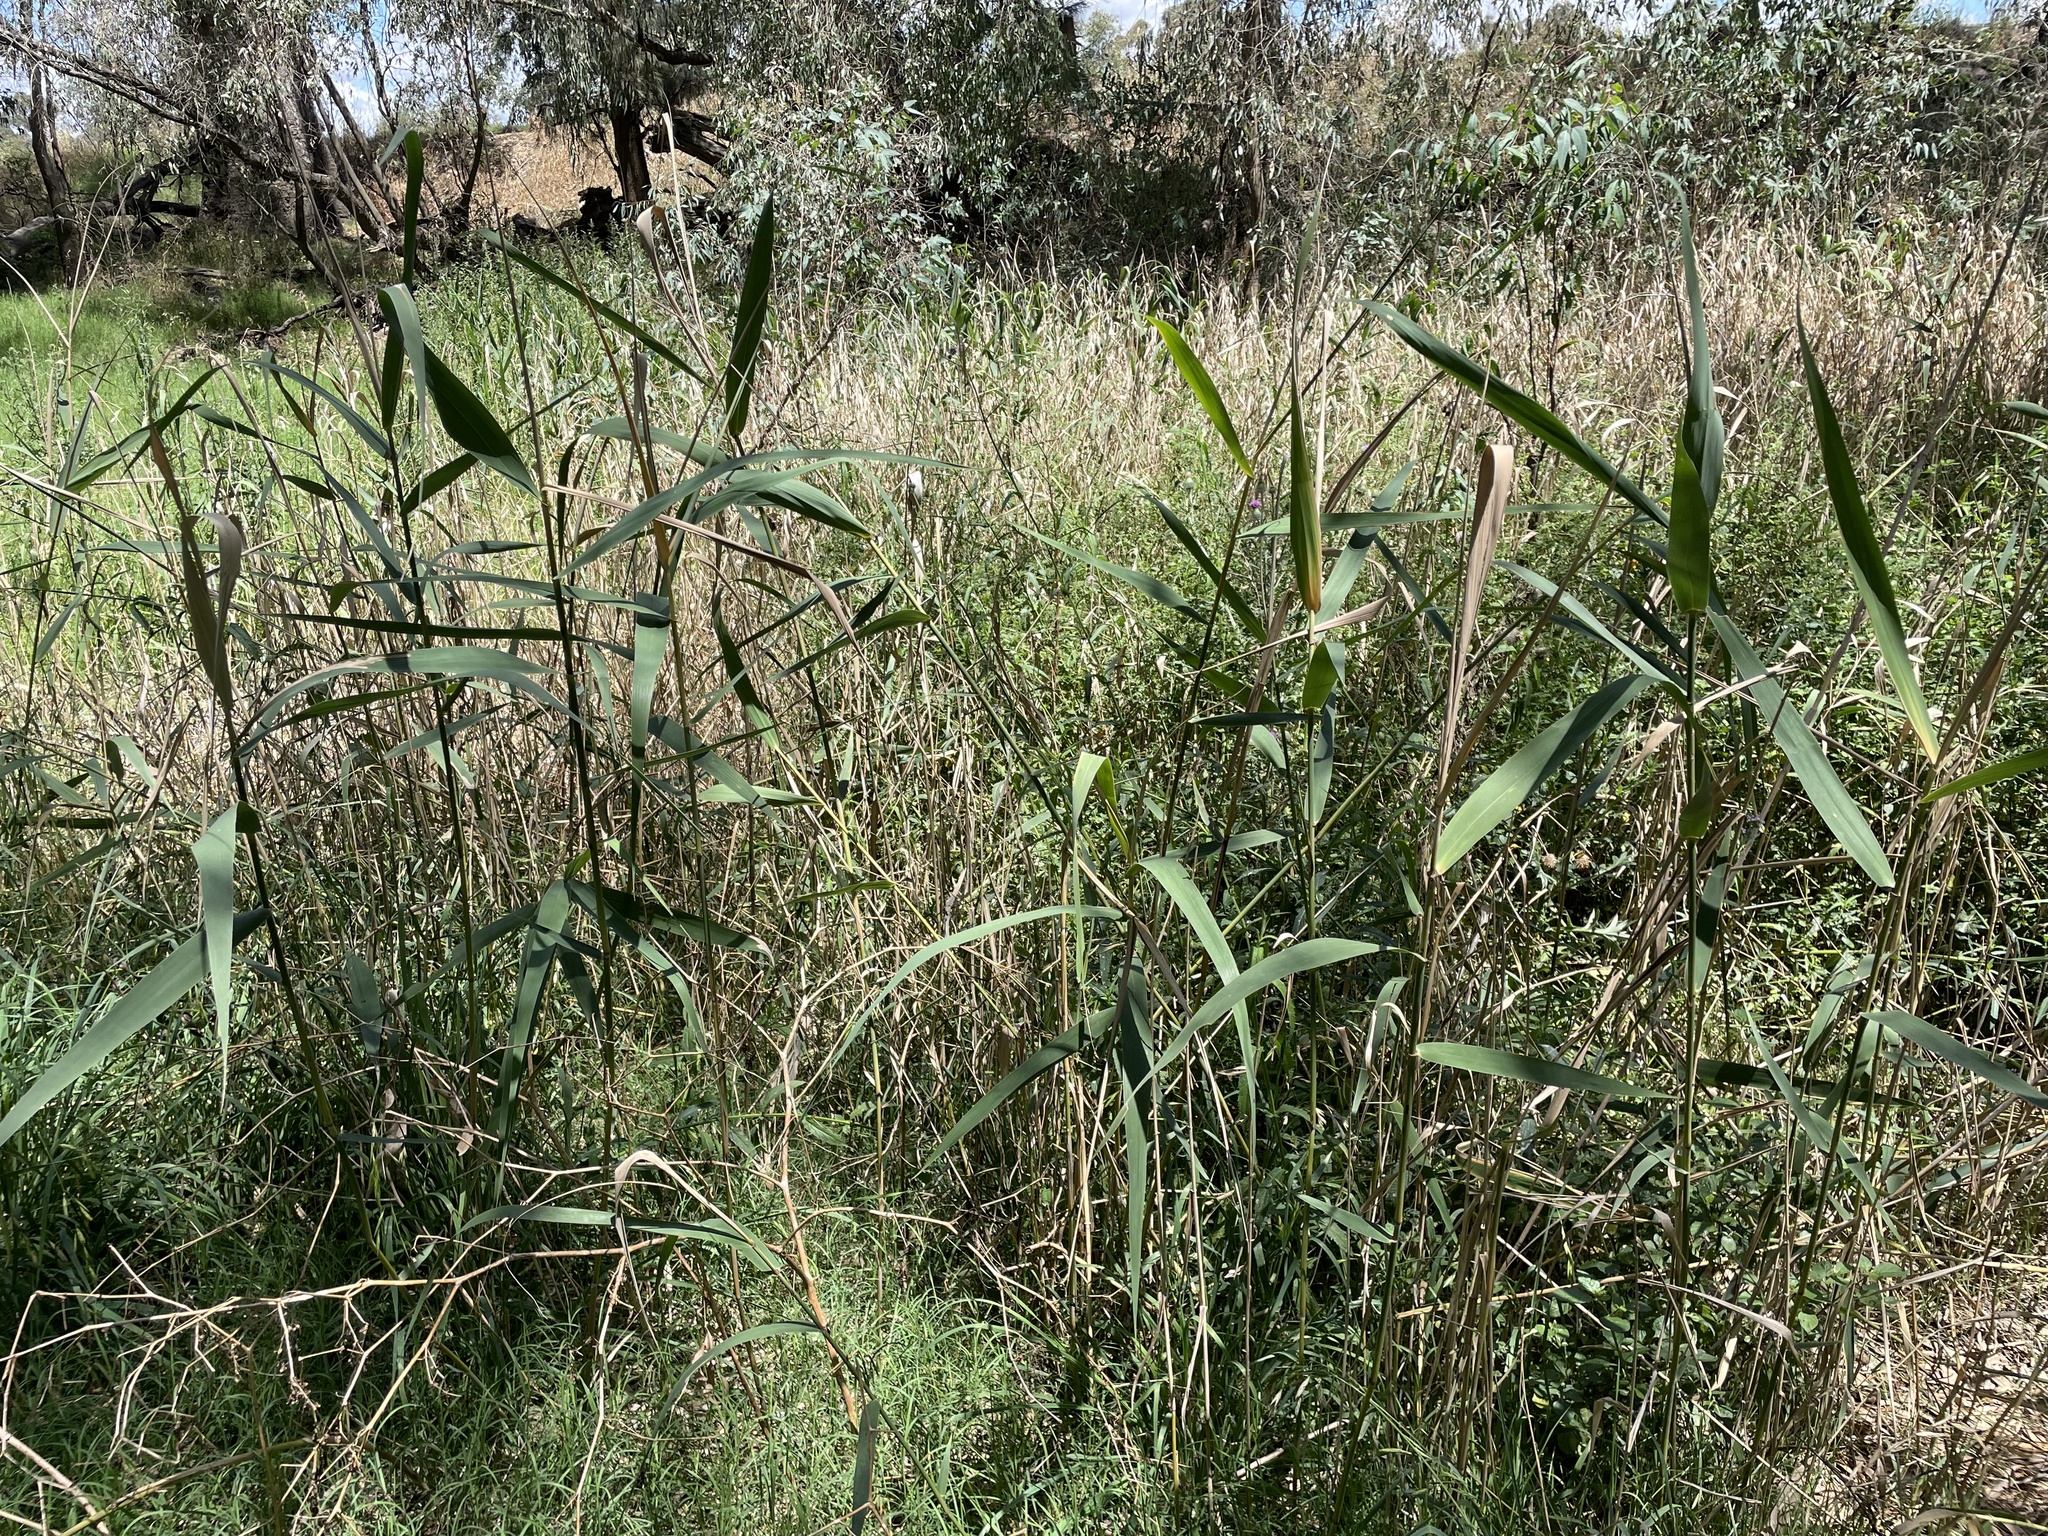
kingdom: Plantae
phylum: Tracheophyta
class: Liliopsida
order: Poales
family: Poaceae
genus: Phragmites
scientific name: Phragmites australis
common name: Common reed
